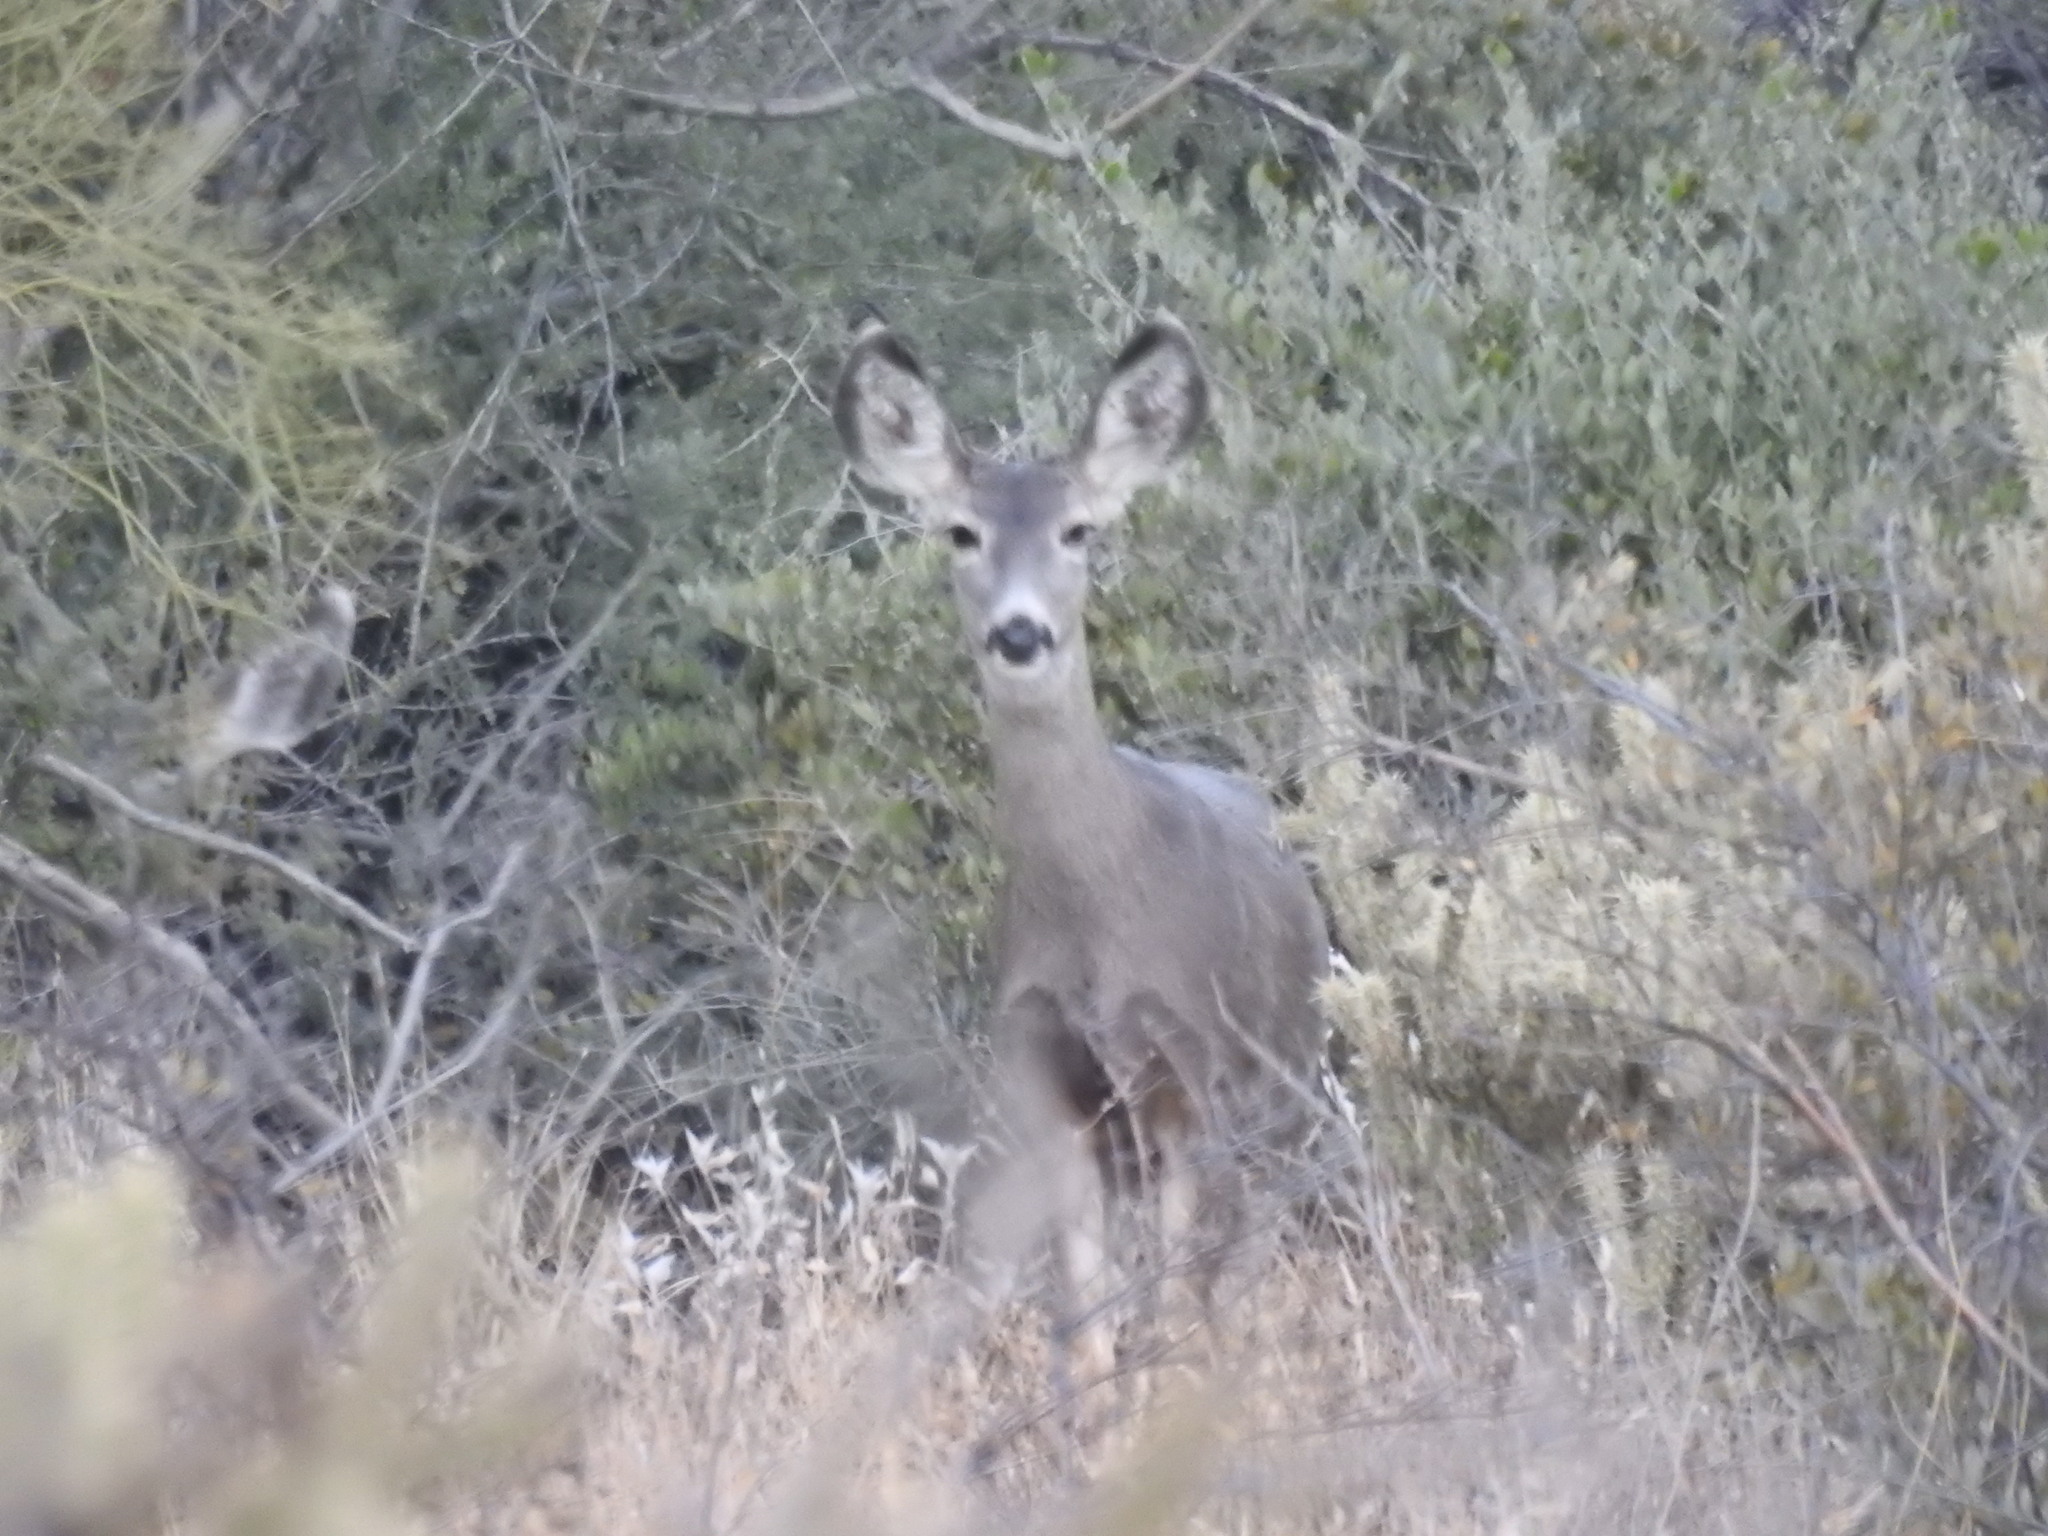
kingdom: Animalia
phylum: Chordata
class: Mammalia
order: Artiodactyla
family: Cervidae
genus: Odocoileus
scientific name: Odocoileus hemionus
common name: Mule deer
